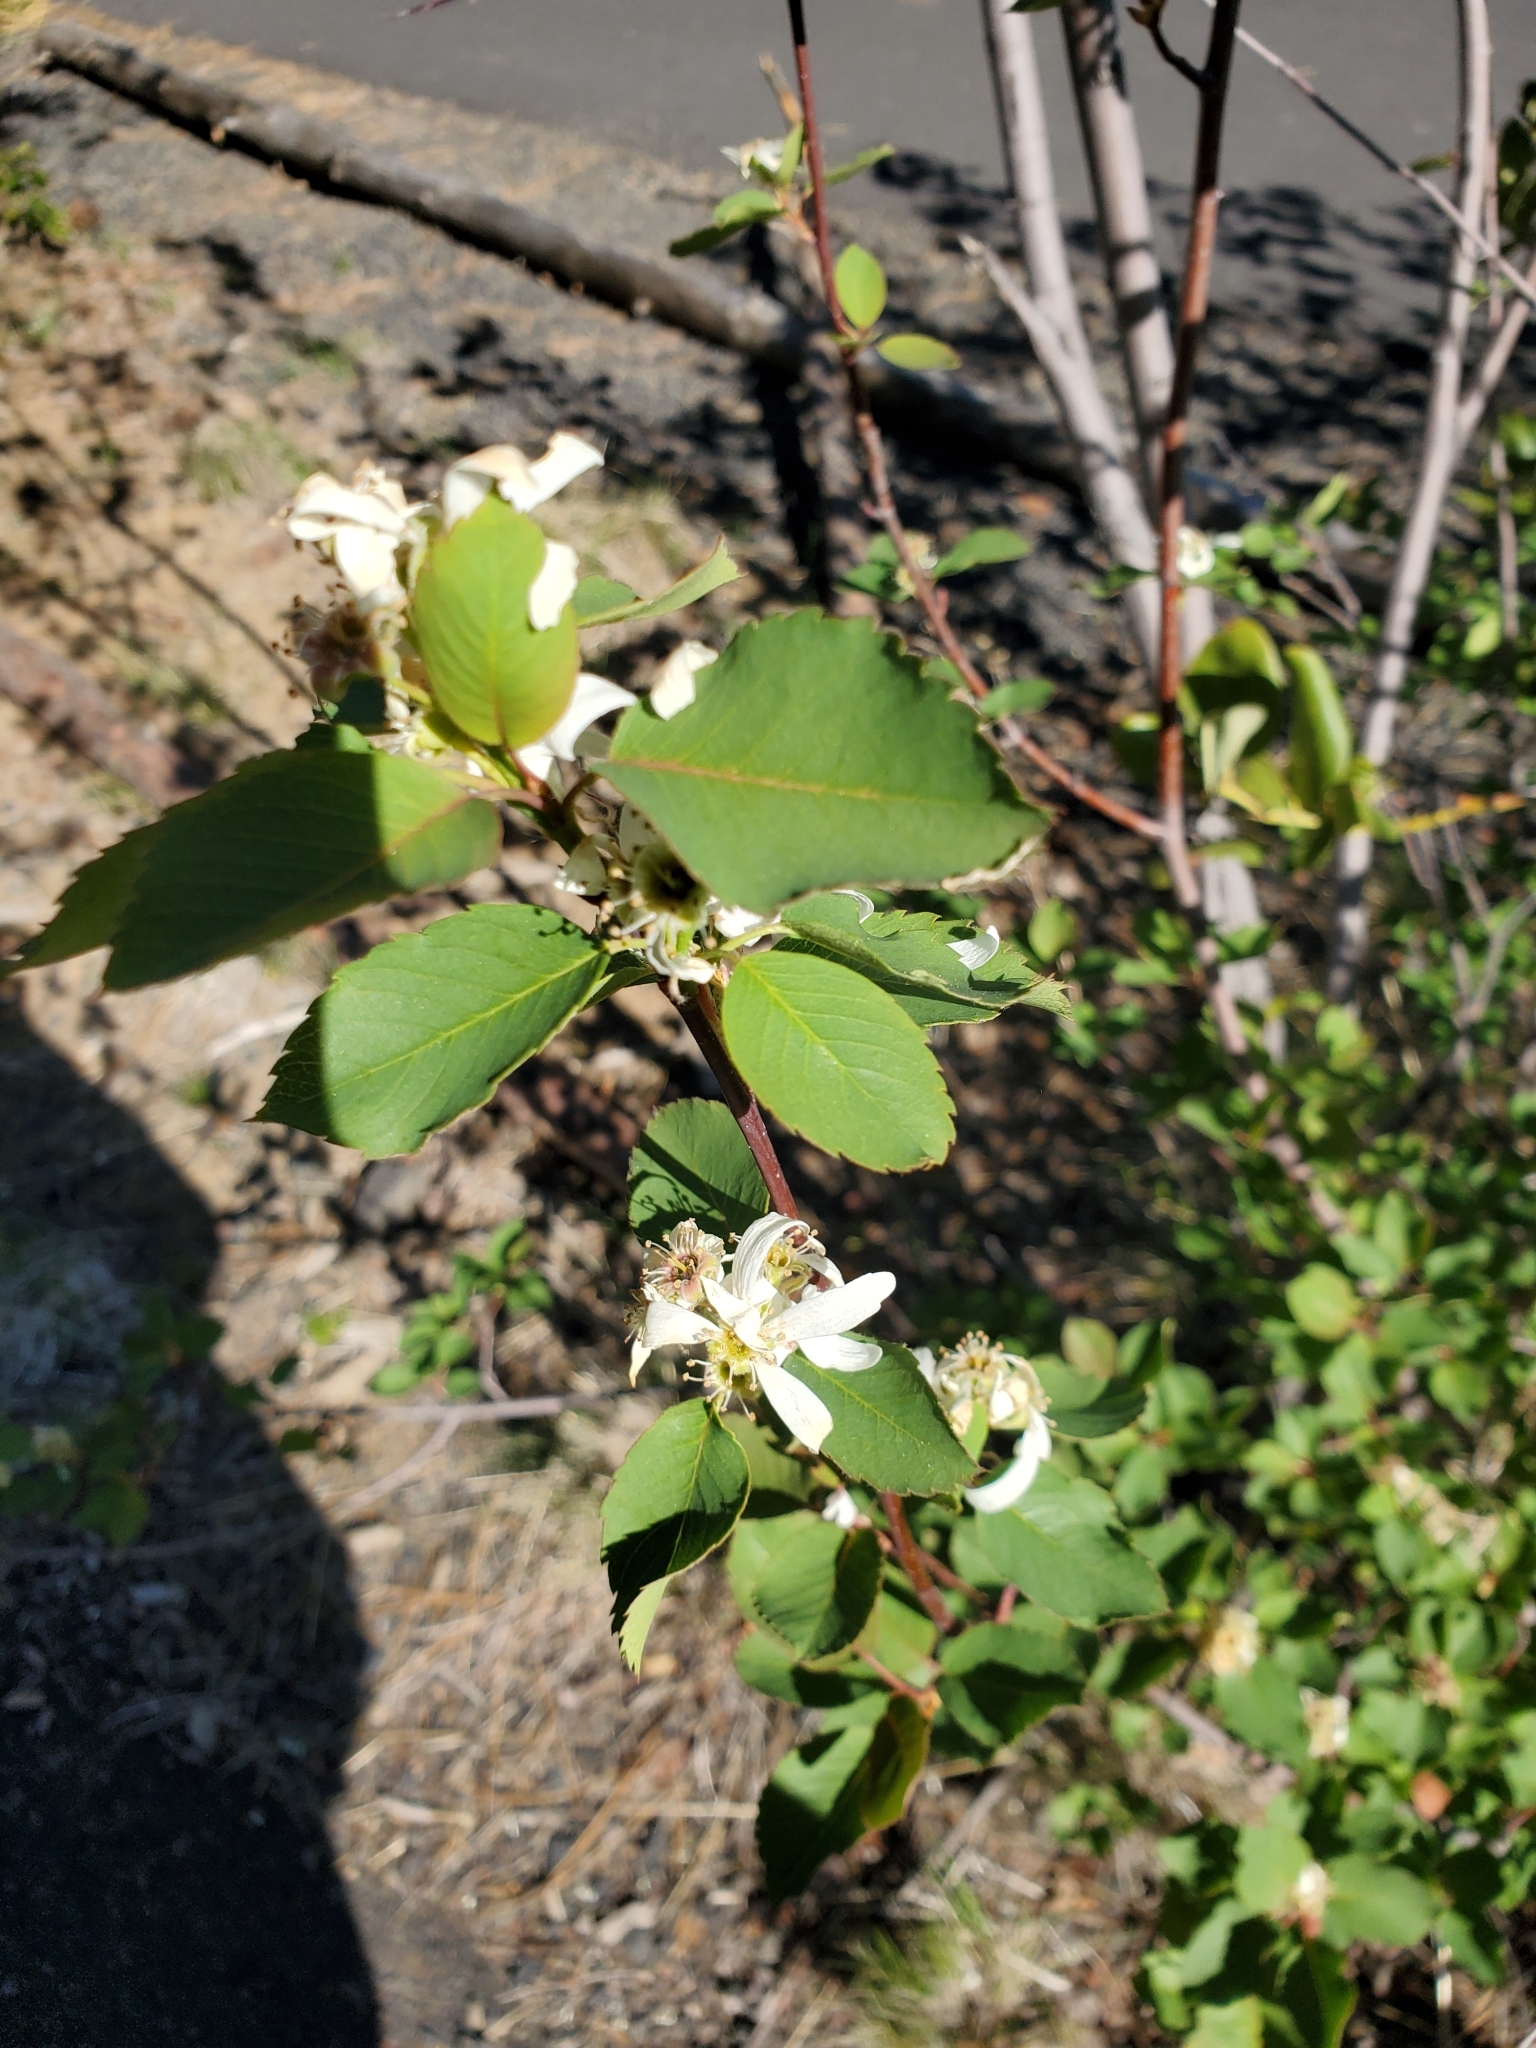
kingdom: Plantae
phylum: Tracheophyta
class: Magnoliopsida
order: Rosales
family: Rosaceae
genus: Amelanchier
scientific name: Amelanchier alnifolia
